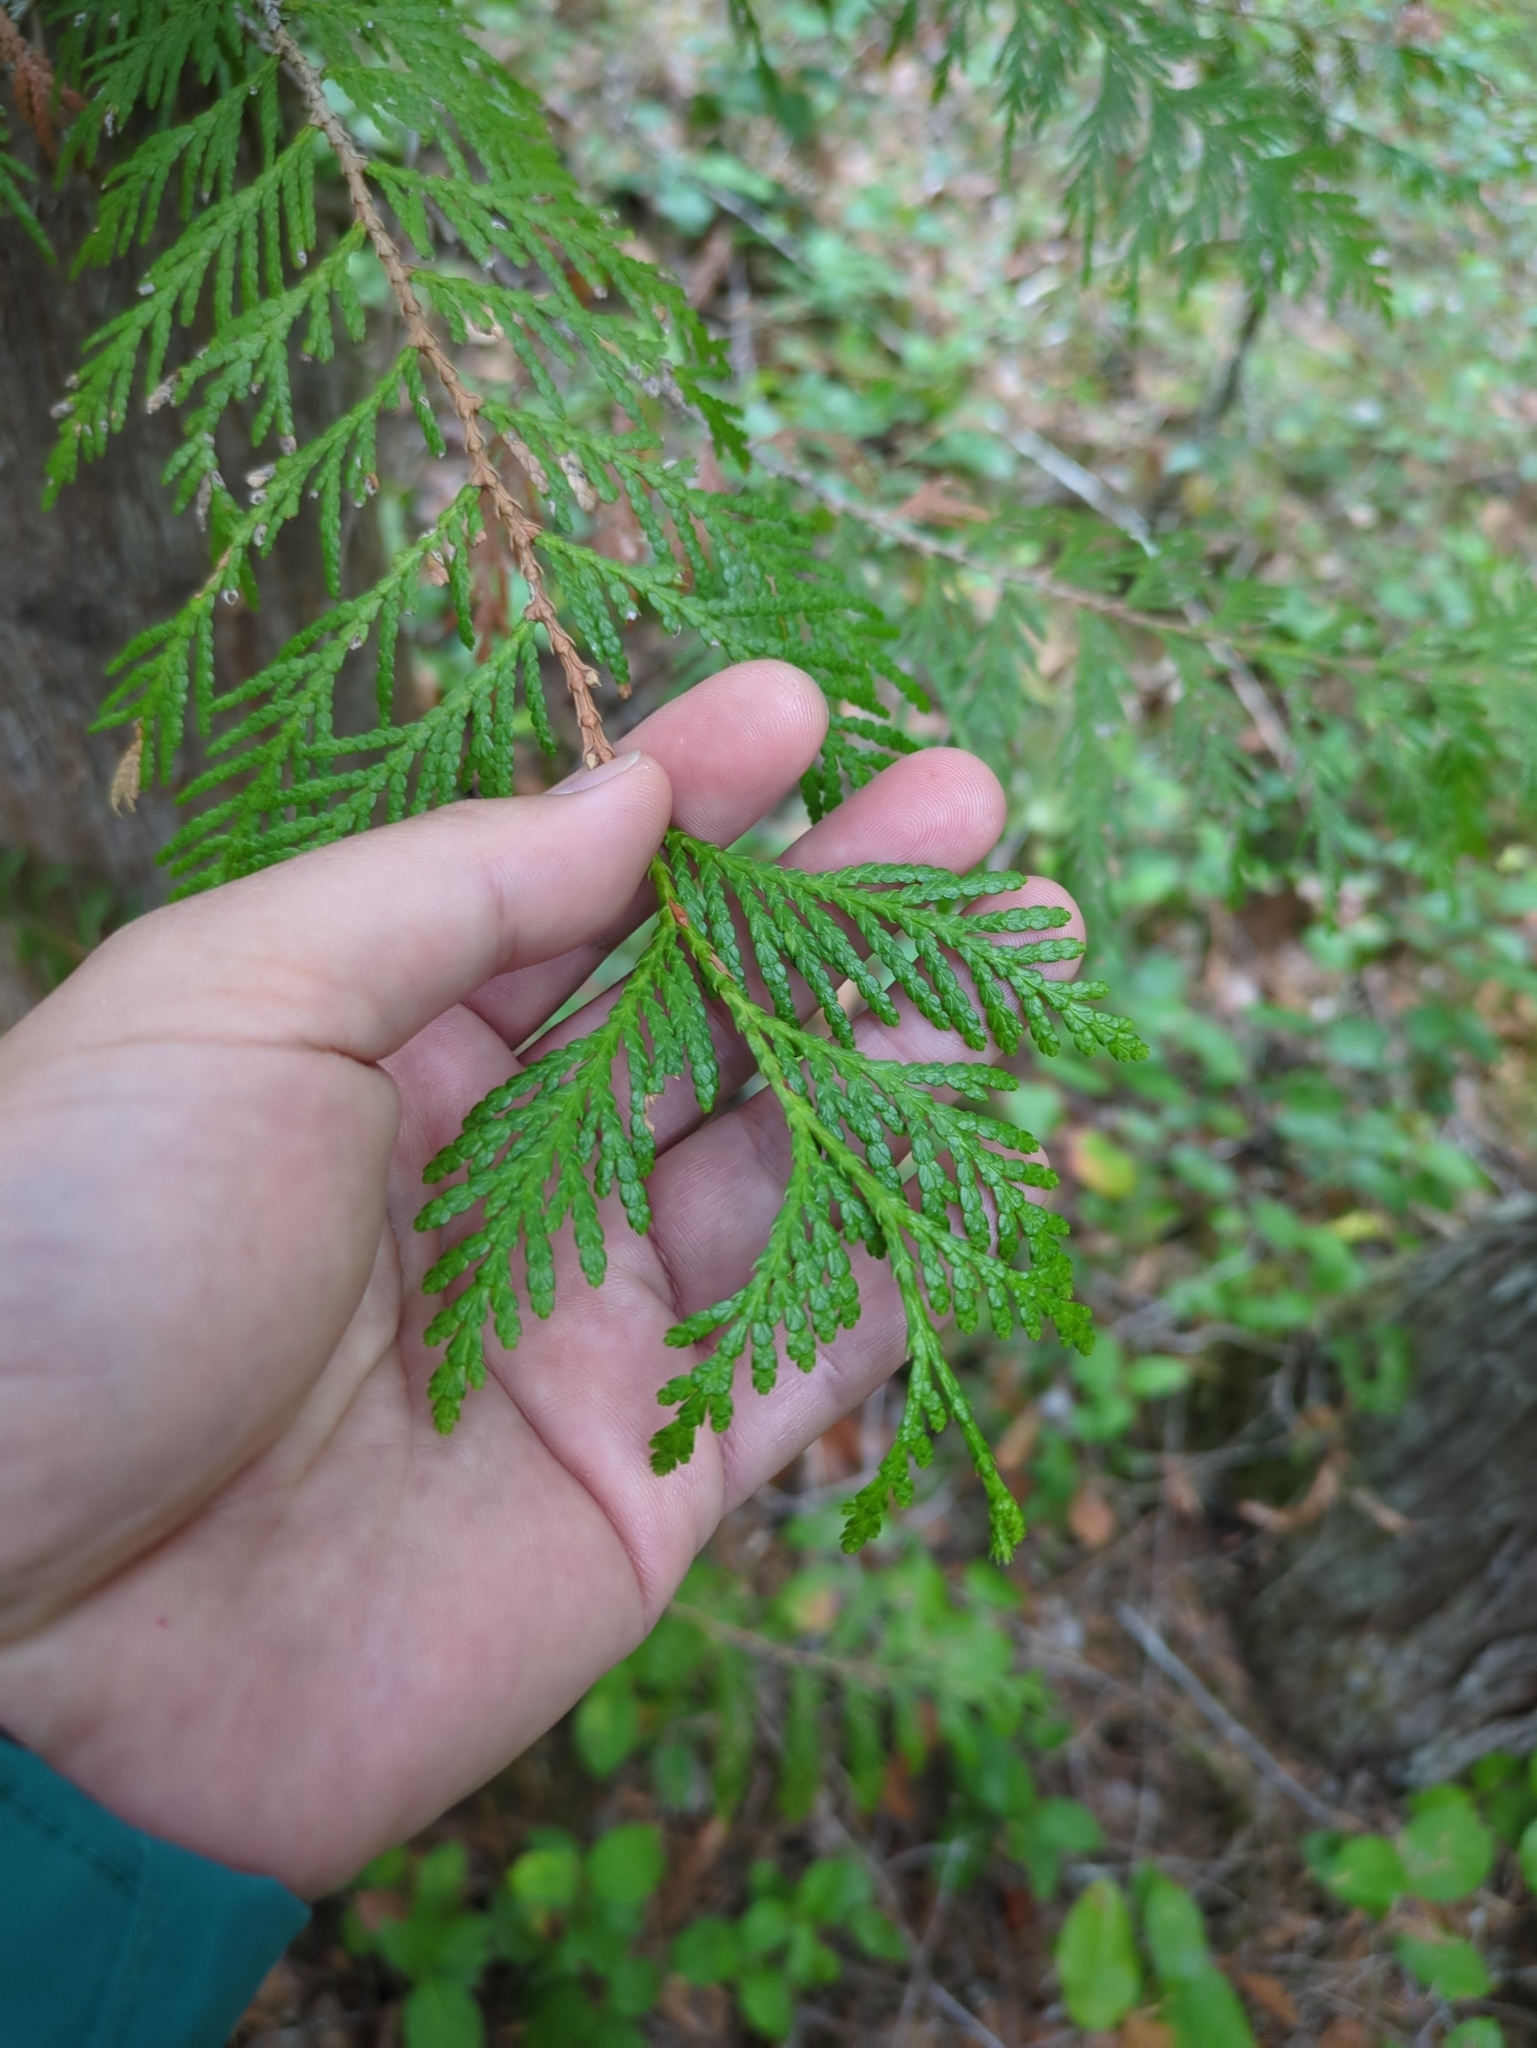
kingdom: Plantae
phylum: Tracheophyta
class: Pinopsida
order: Pinales
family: Cupressaceae
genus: Thuja
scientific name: Thuja plicata
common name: Western red-cedar
